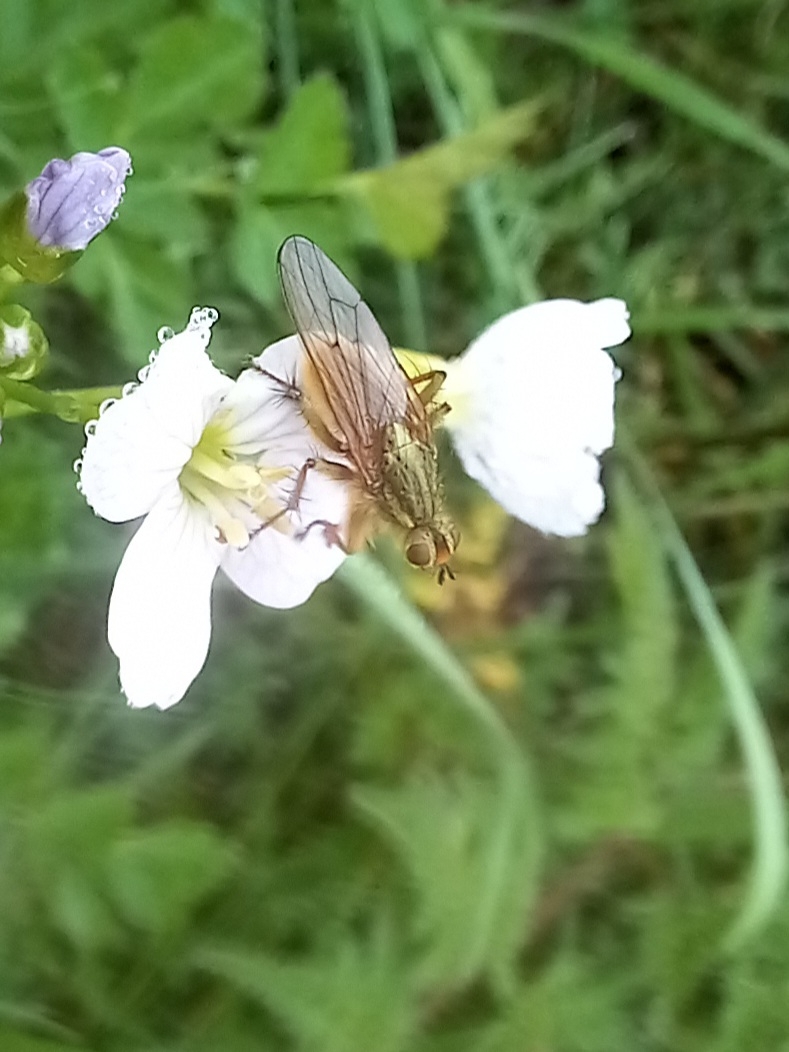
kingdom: Animalia
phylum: Arthropoda
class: Insecta
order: Diptera
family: Scathophagidae
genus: Scathophaga
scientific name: Scathophaga stercoraria
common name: Yellow dung fly
